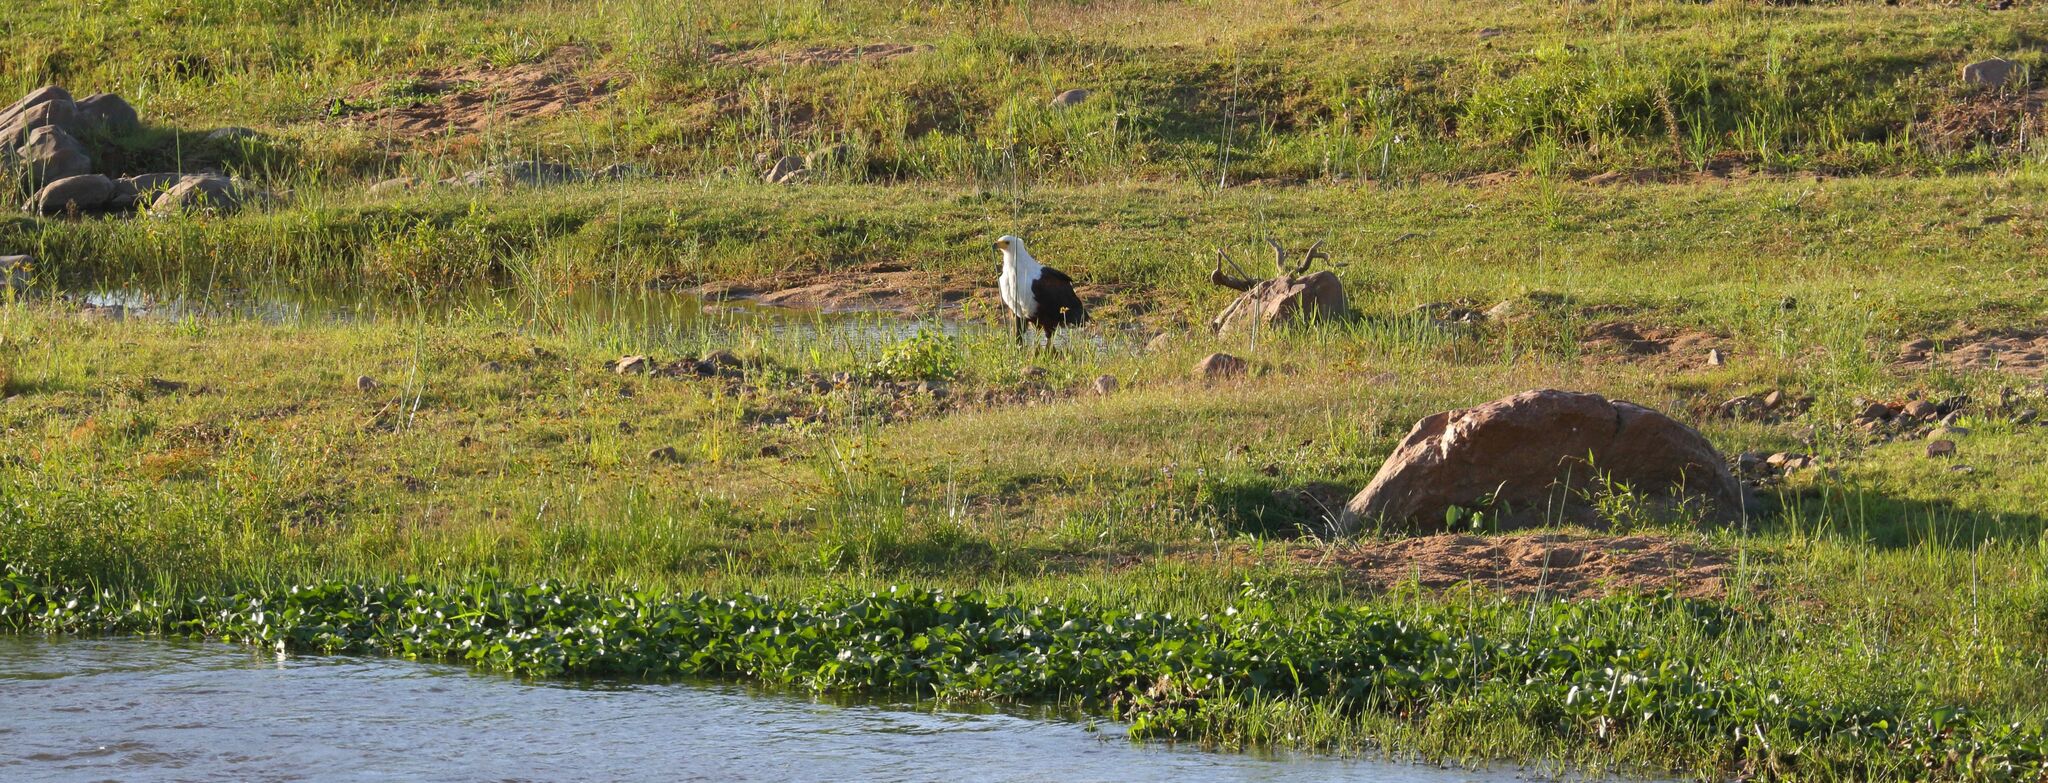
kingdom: Animalia
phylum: Chordata
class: Aves
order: Accipitriformes
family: Accipitridae
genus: Haliaeetus
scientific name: Haliaeetus vocifer
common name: African fish eagle
